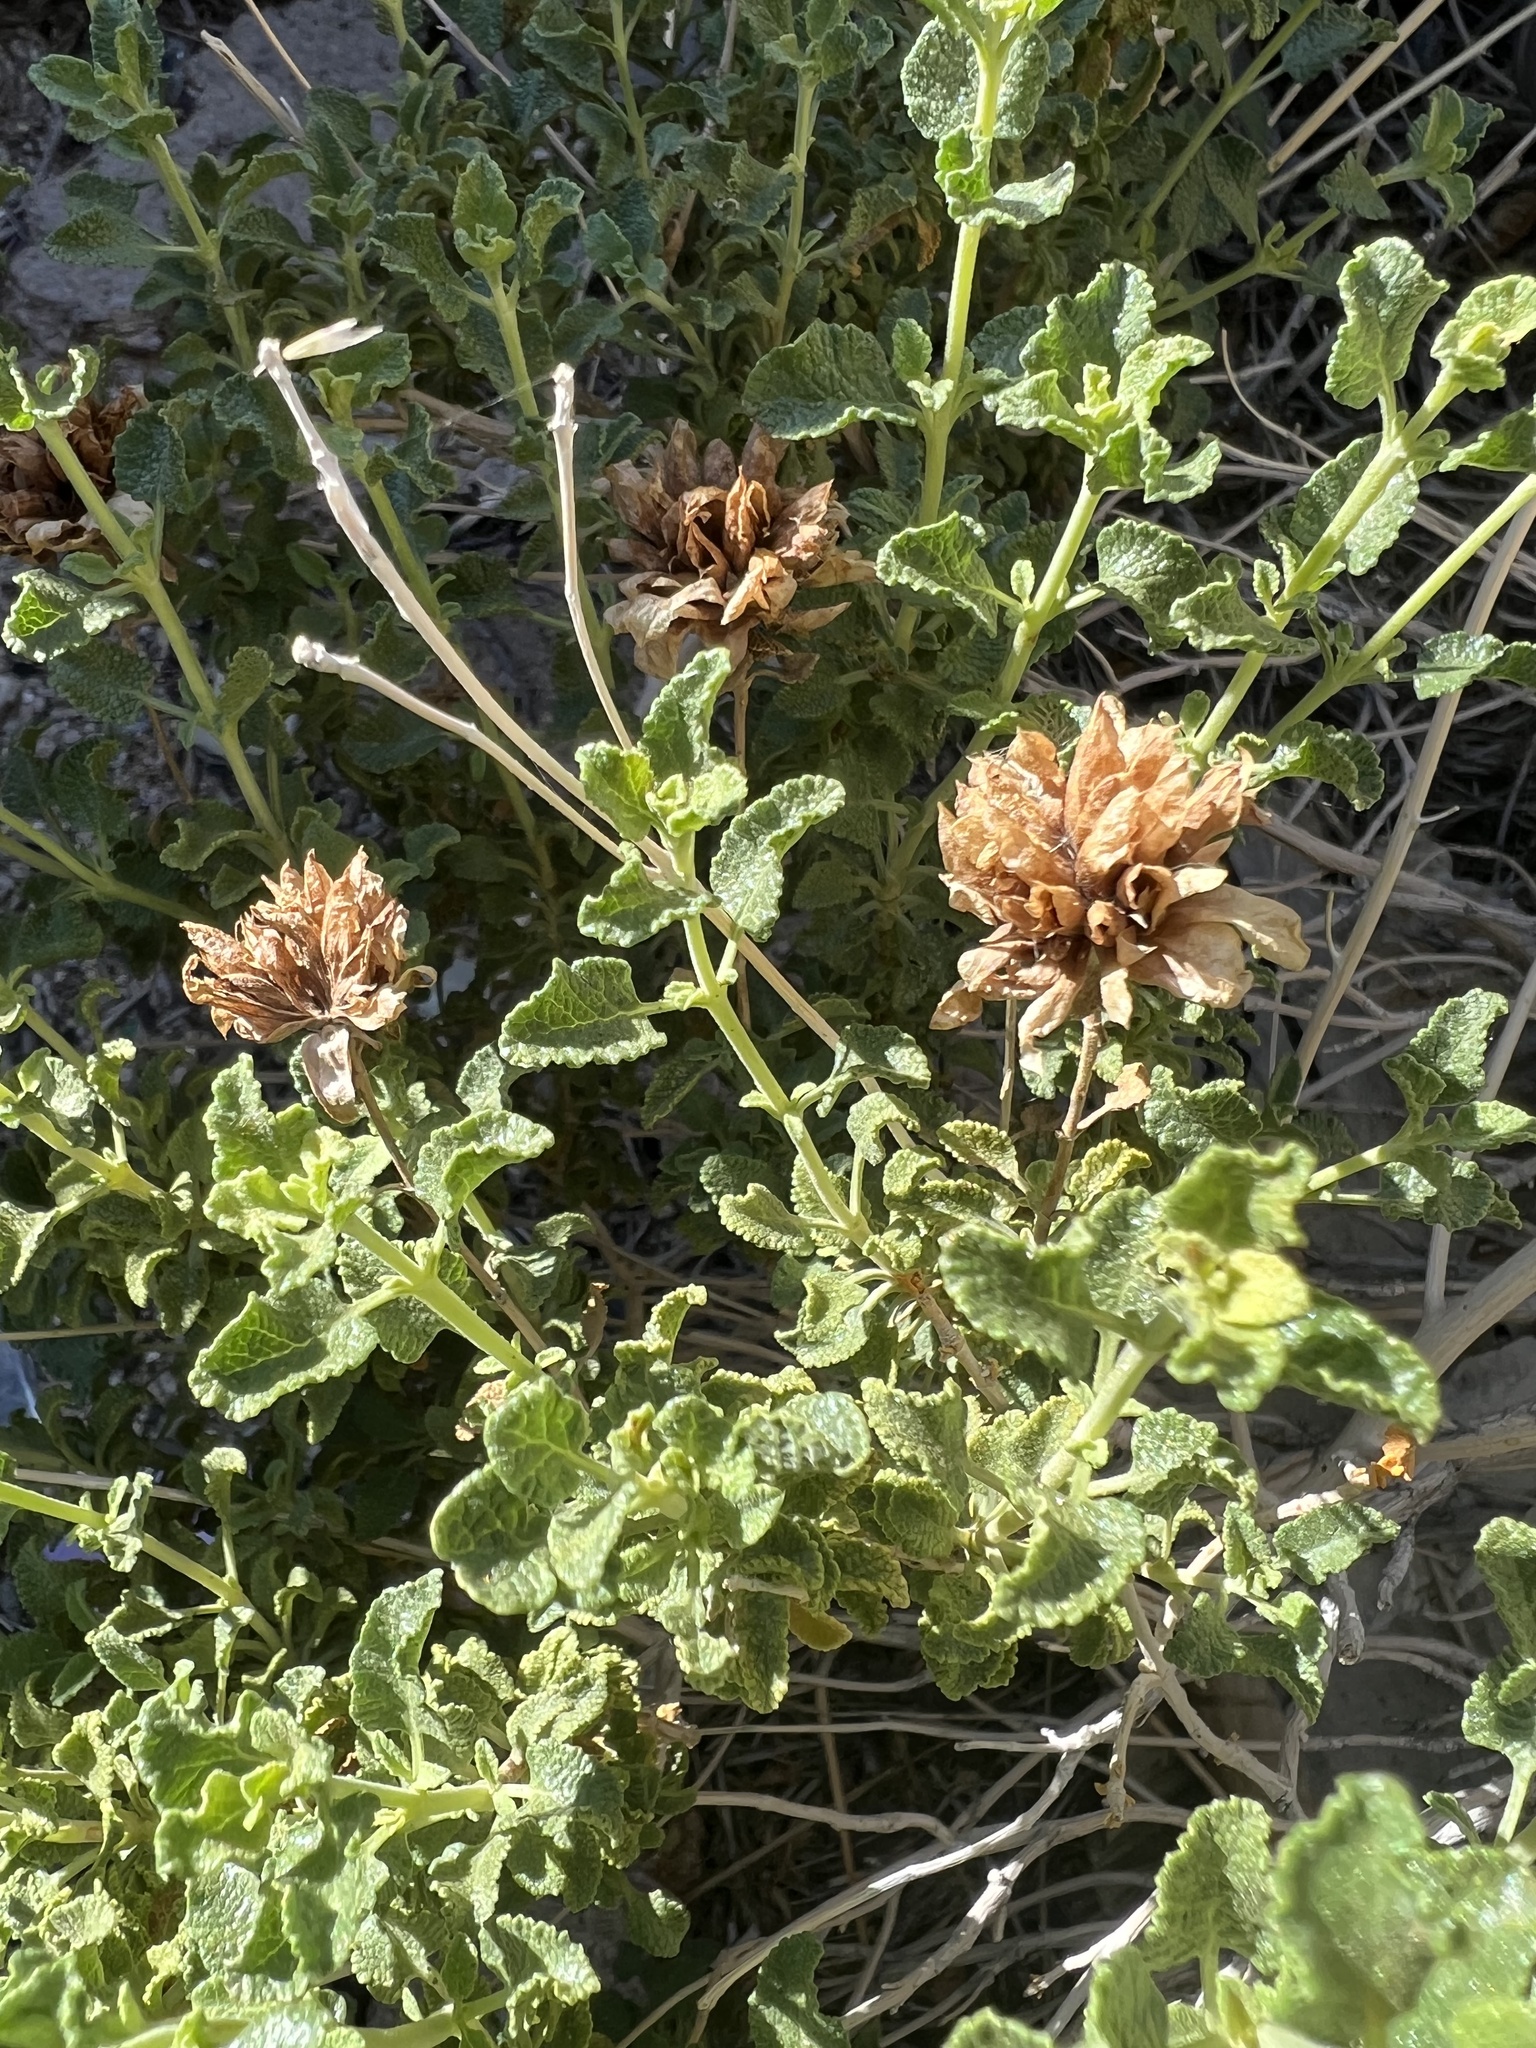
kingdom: Plantae
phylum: Tracheophyta
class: Magnoliopsida
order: Lamiales
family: Lamiaceae
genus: Salvia
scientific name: Salvia mohavensis
